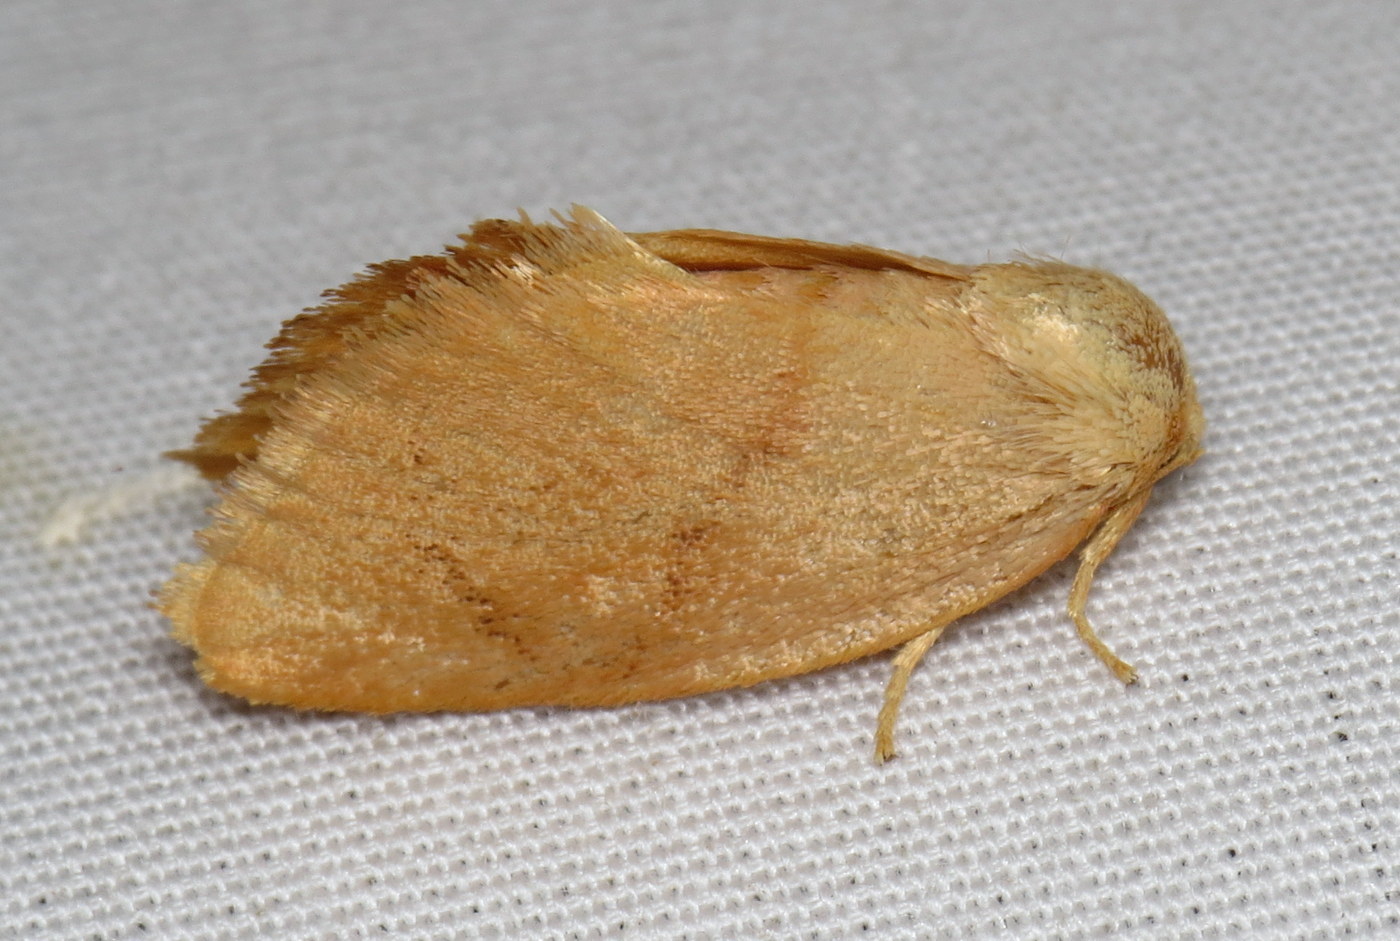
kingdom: Animalia
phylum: Arthropoda
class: Insecta
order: Lepidoptera
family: Limacodidae
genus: Tortricidia
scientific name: Tortricidia pallida
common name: Red-crossed button slug moth
